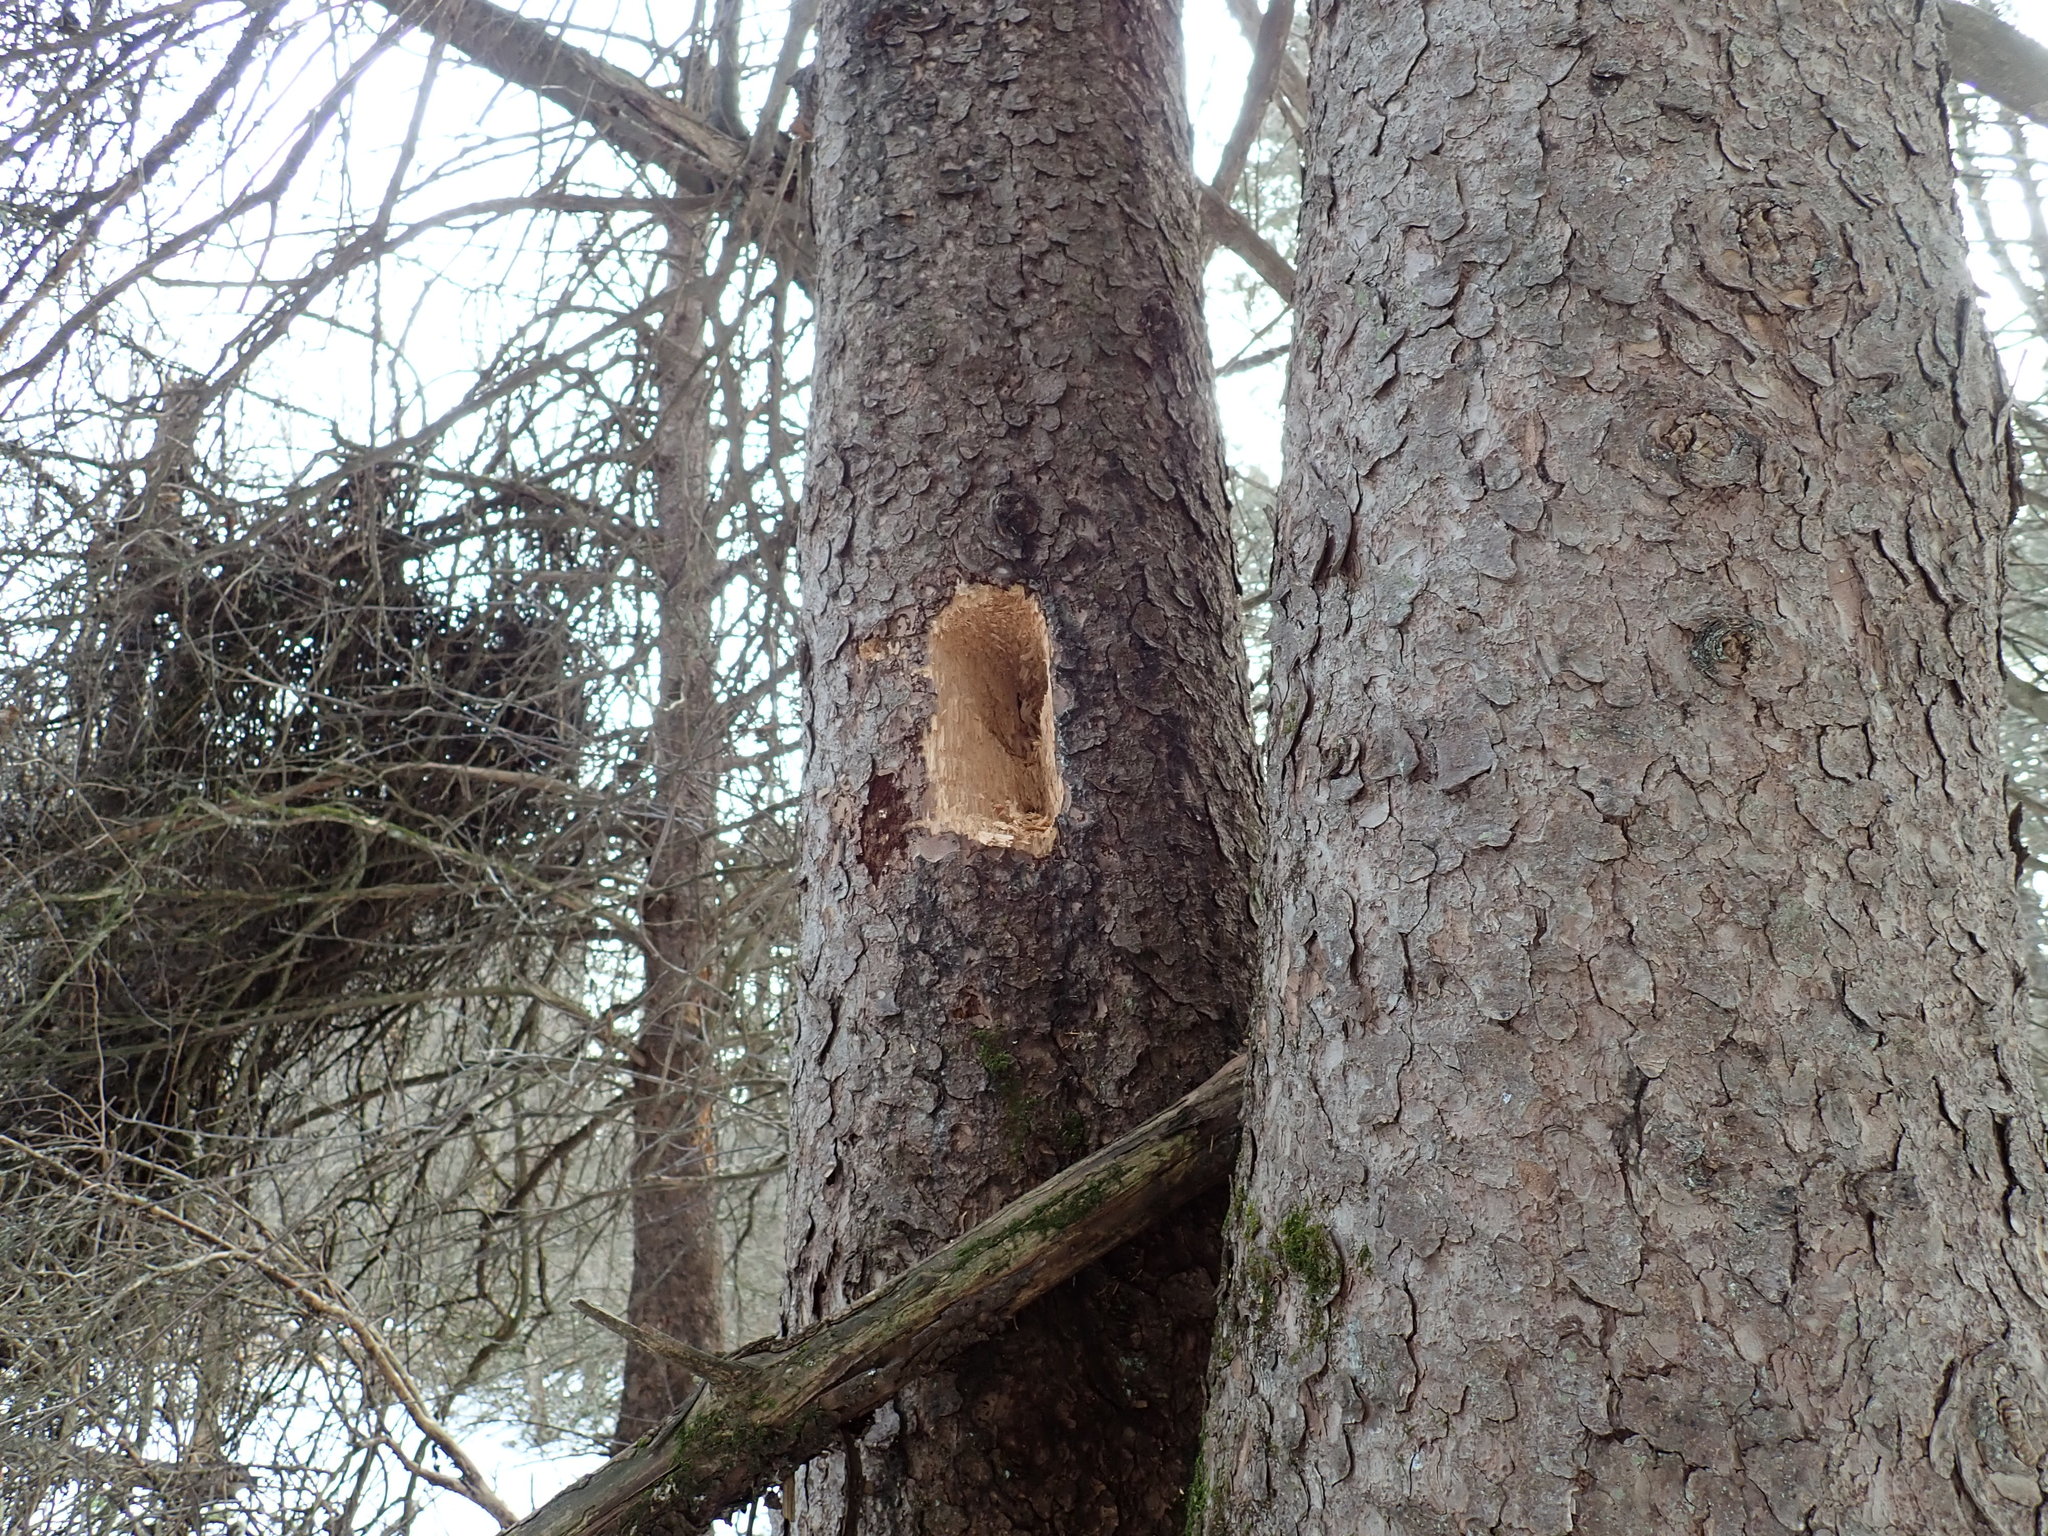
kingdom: Animalia
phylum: Chordata
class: Aves
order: Piciformes
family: Picidae
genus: Dryocopus
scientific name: Dryocopus pileatus
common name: Pileated woodpecker
